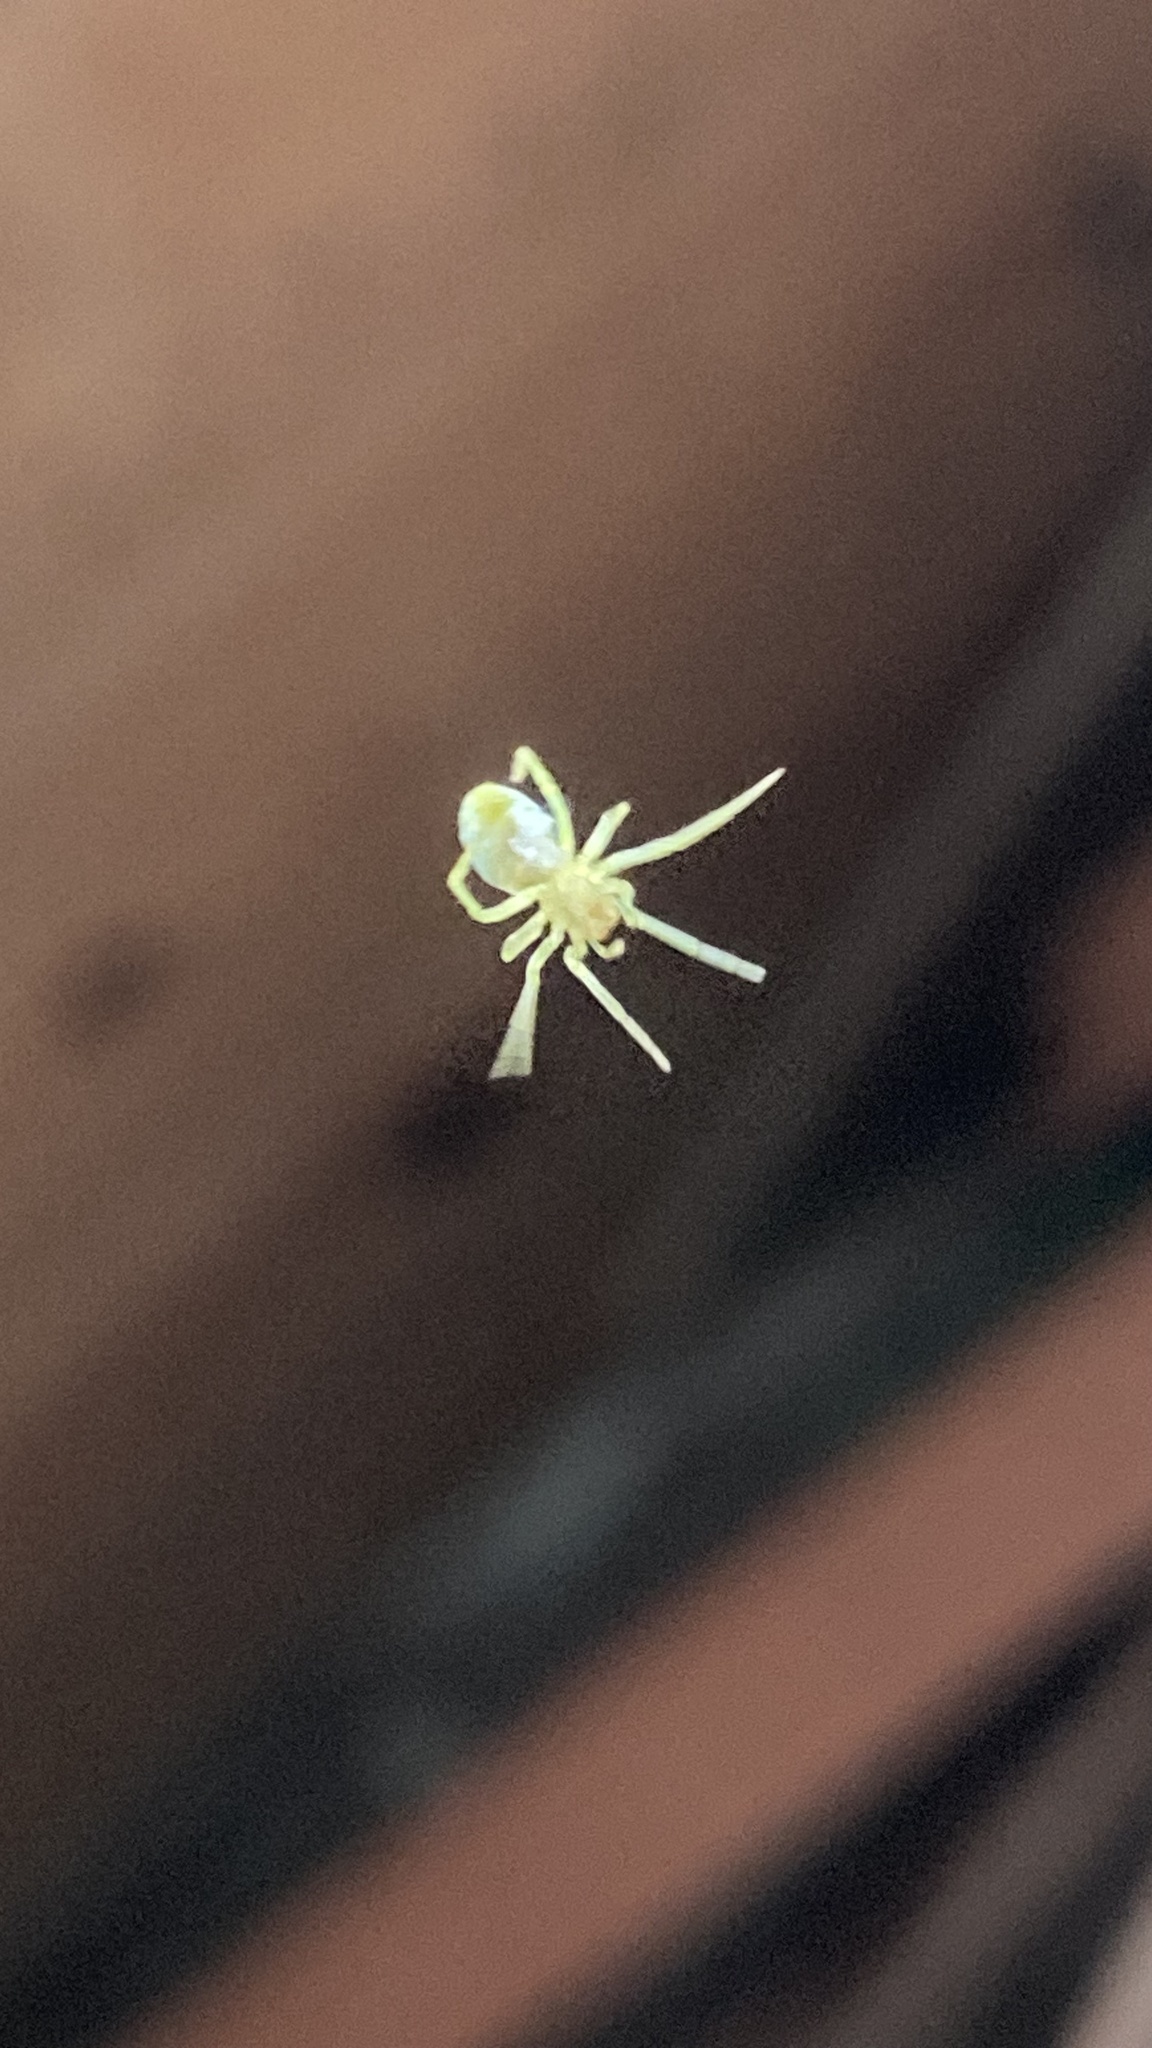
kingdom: Animalia
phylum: Arthropoda
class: Arachnida
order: Araneae
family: Dictynidae
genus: Nigma
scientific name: Nigma walckenaeri
